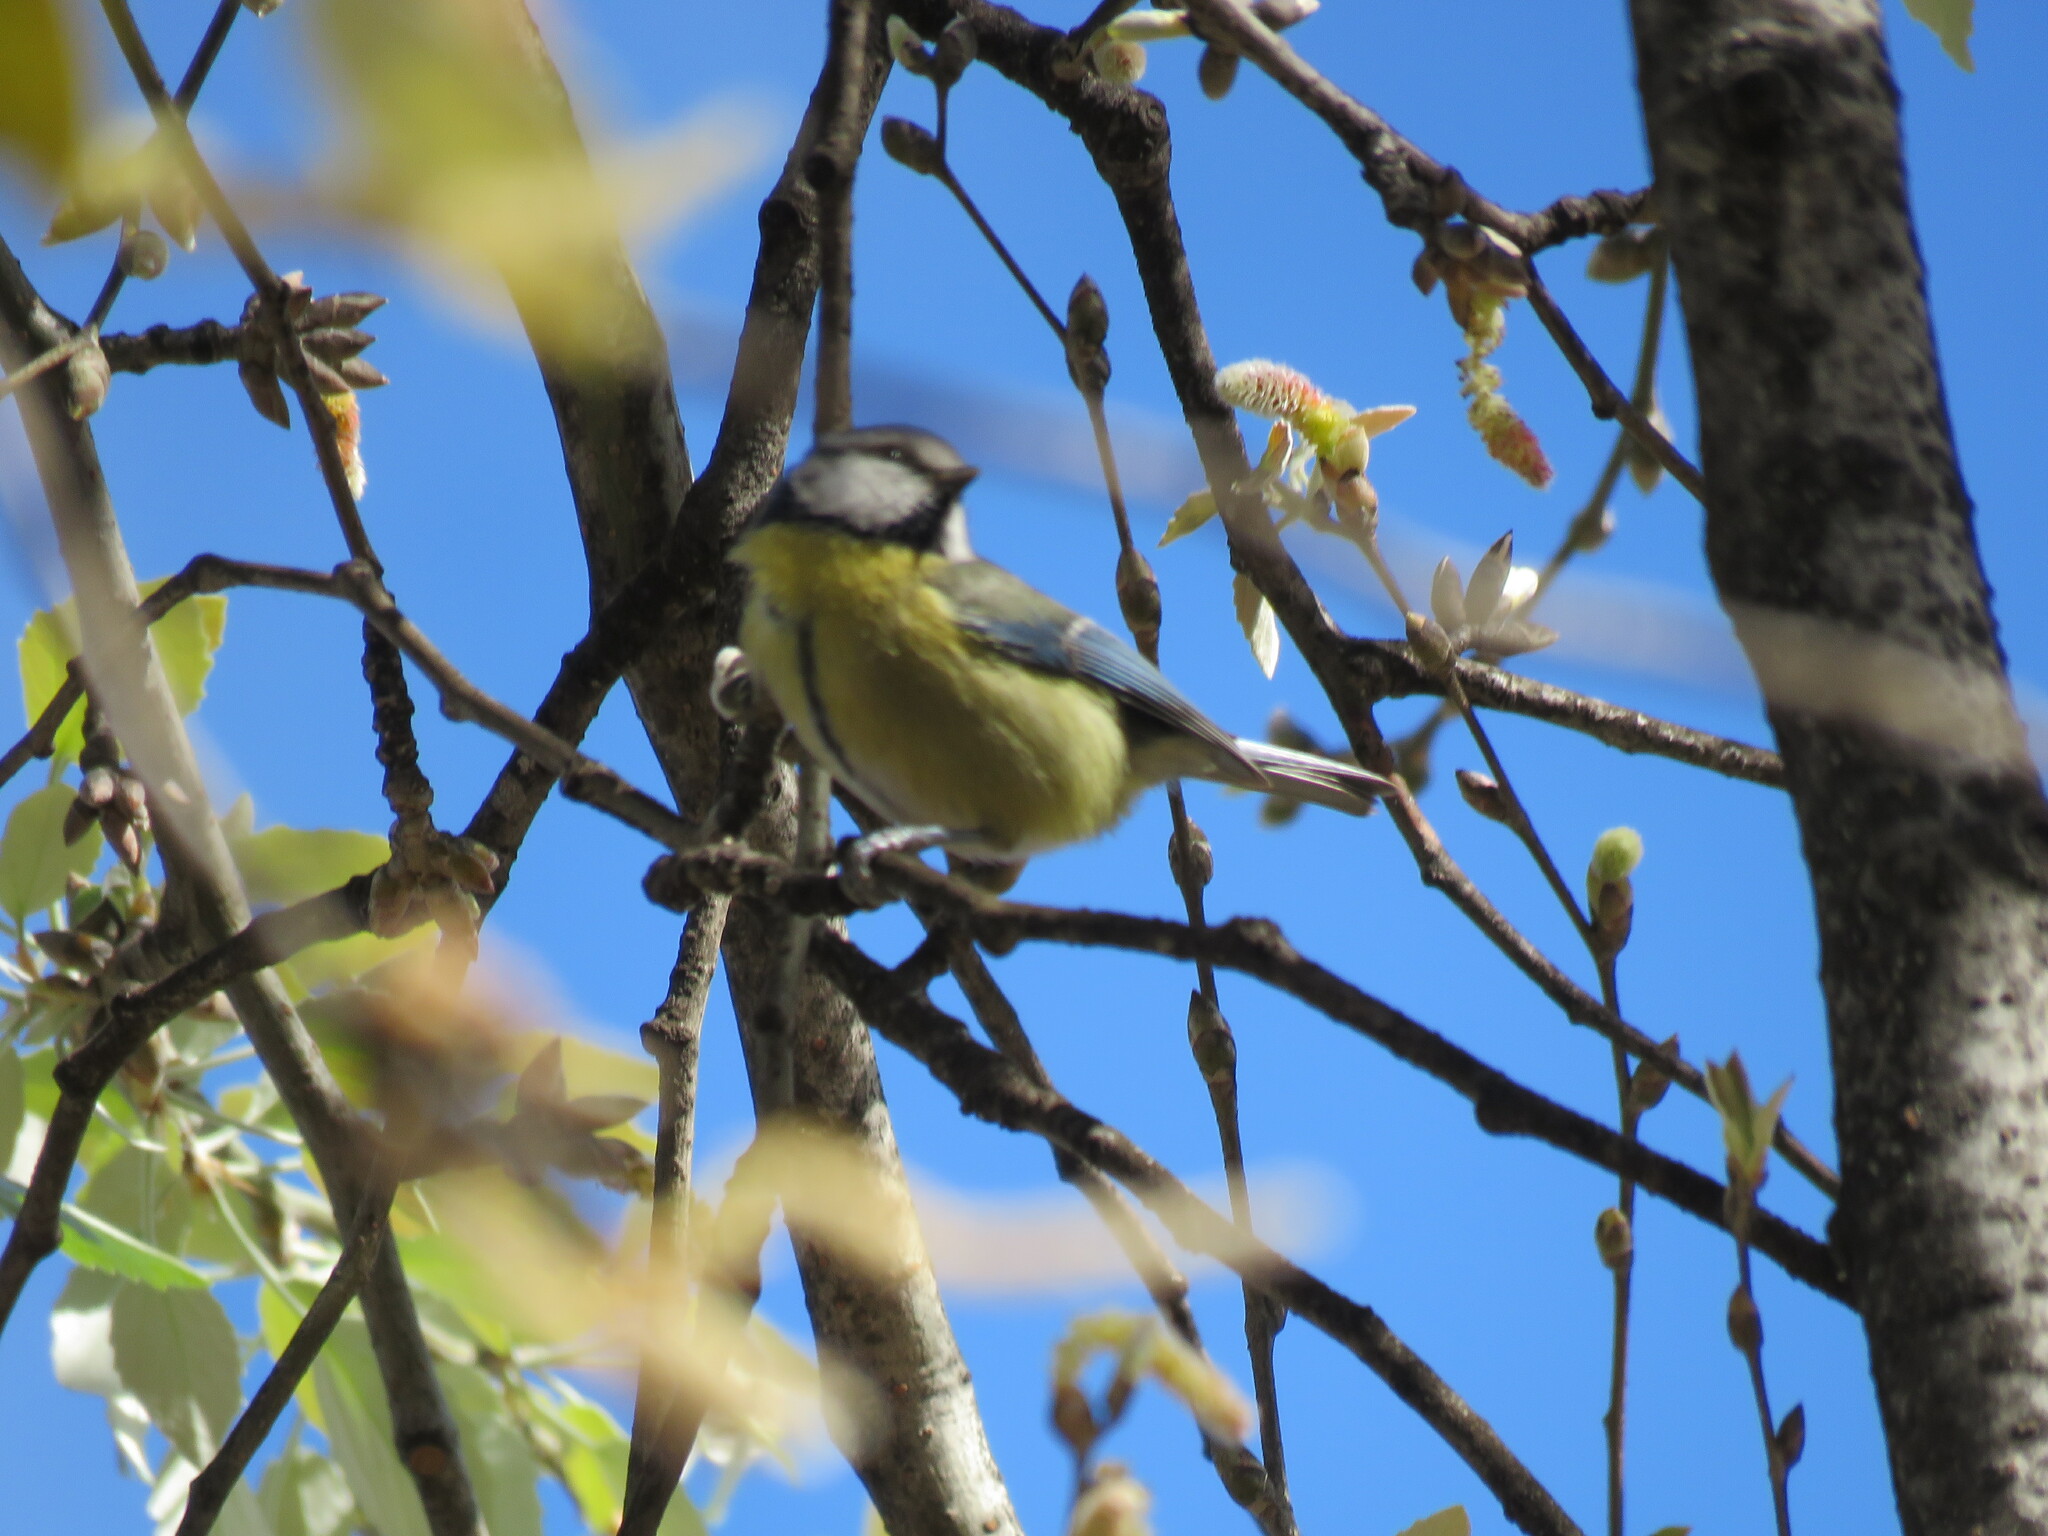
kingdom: Animalia
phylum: Chordata
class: Aves
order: Passeriformes
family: Paridae
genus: Cyanistes
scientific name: Cyanistes caeruleus
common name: Eurasian blue tit
